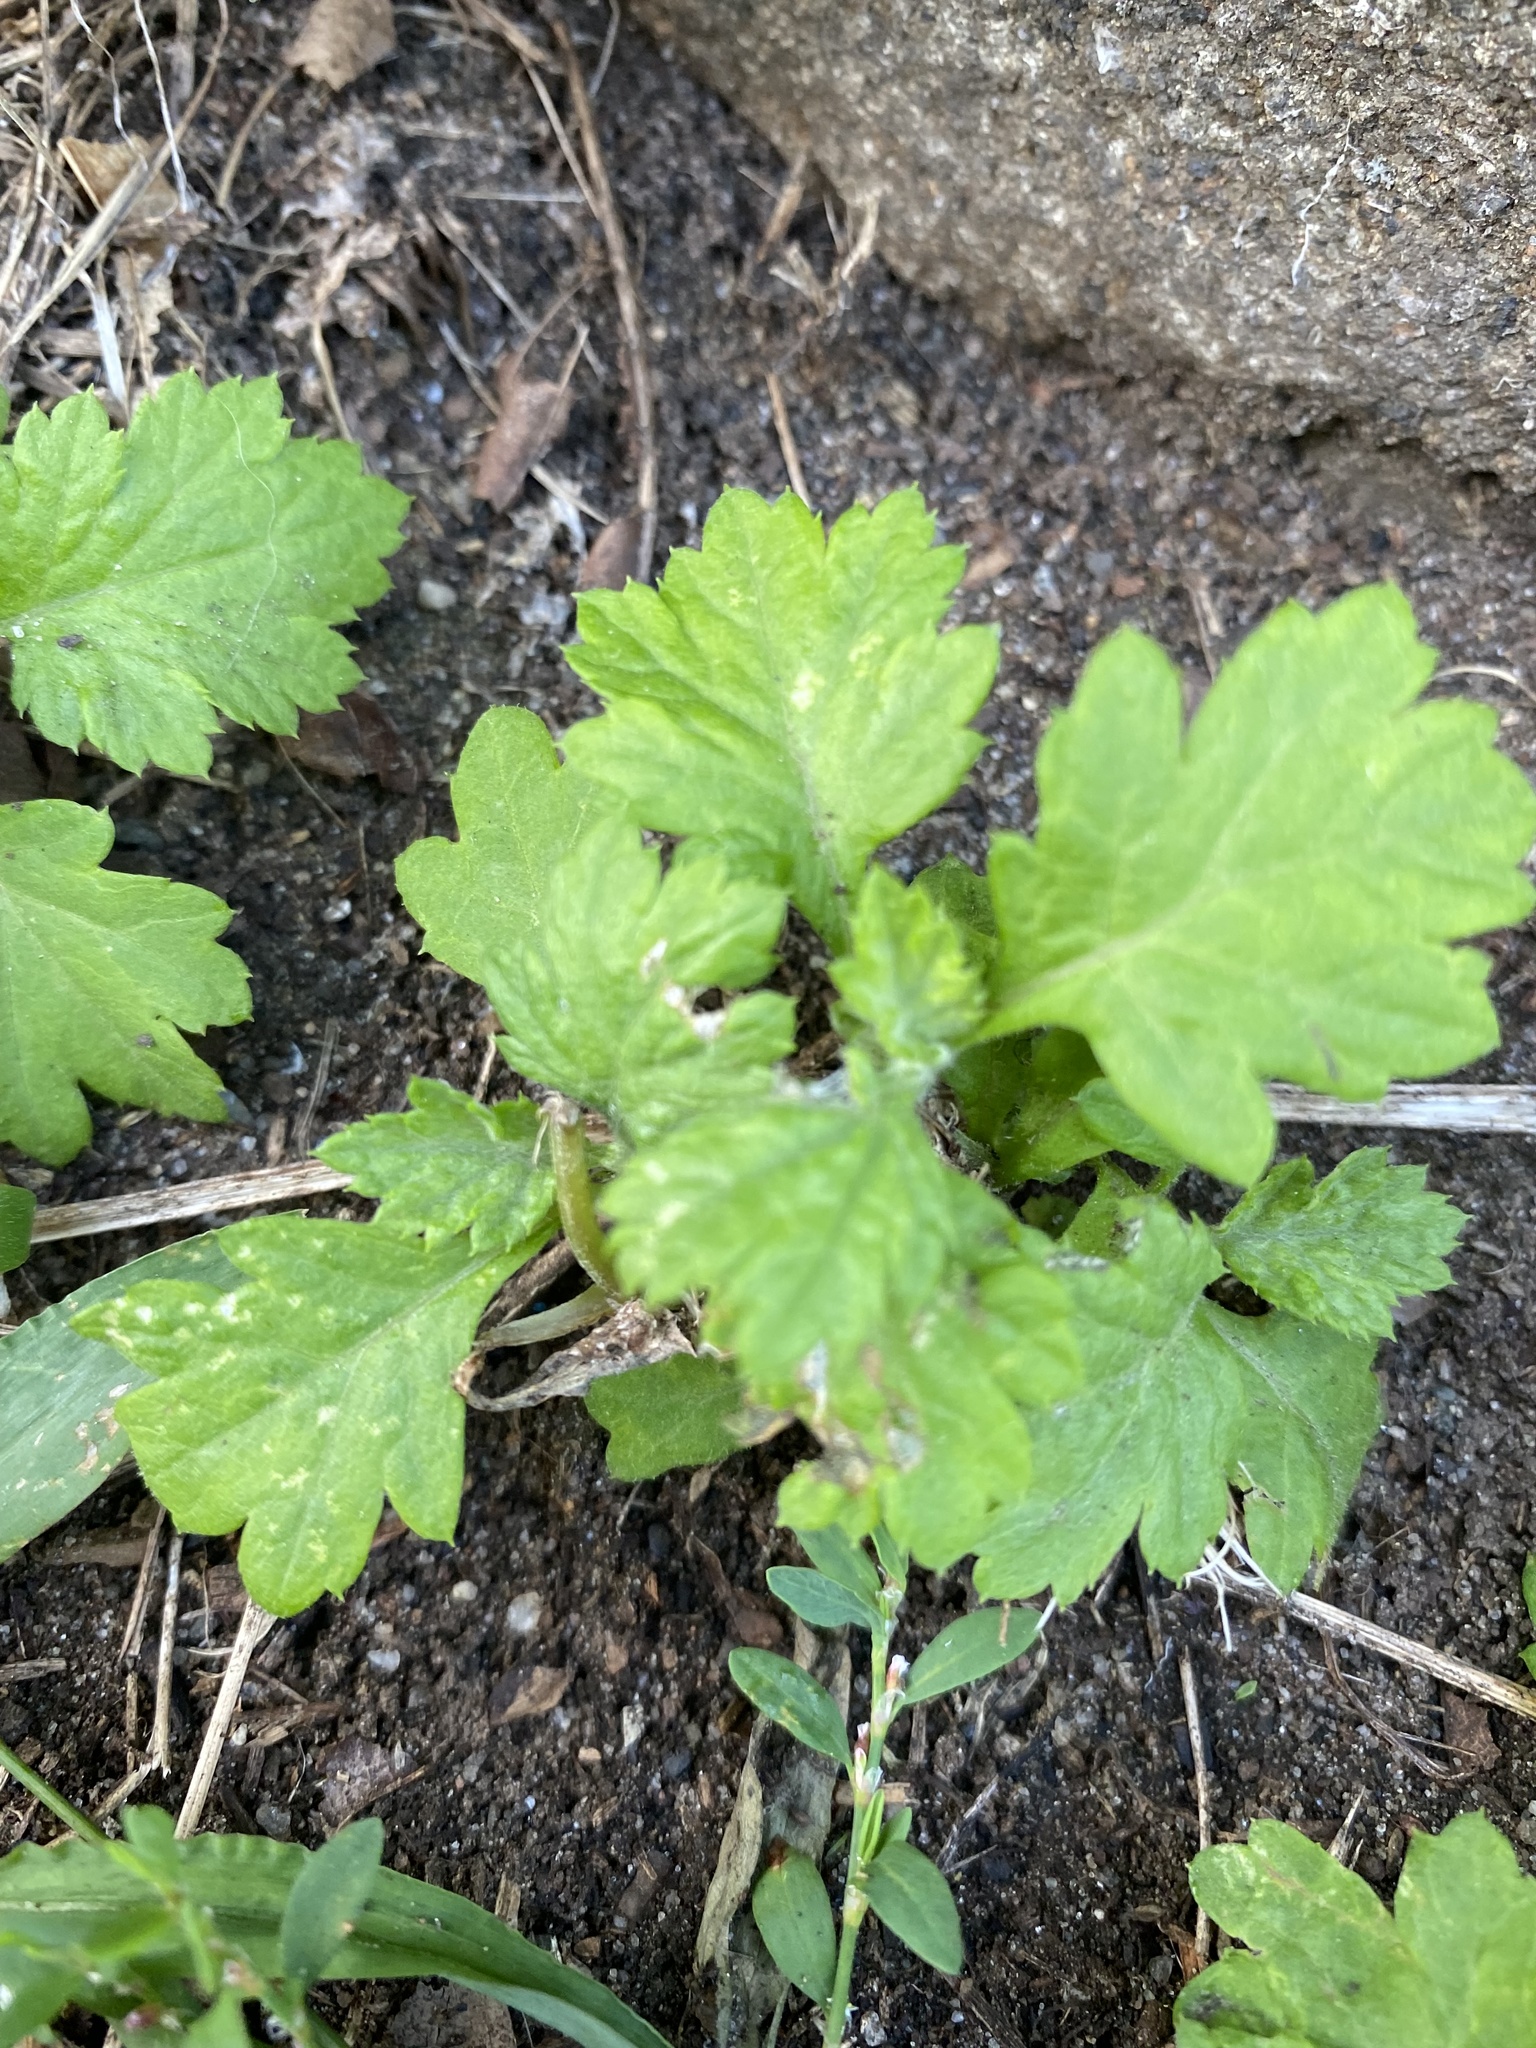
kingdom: Plantae
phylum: Tracheophyta
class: Magnoliopsida
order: Asterales
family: Asteraceae
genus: Artemisia
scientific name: Artemisia vulgaris
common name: Mugwort
